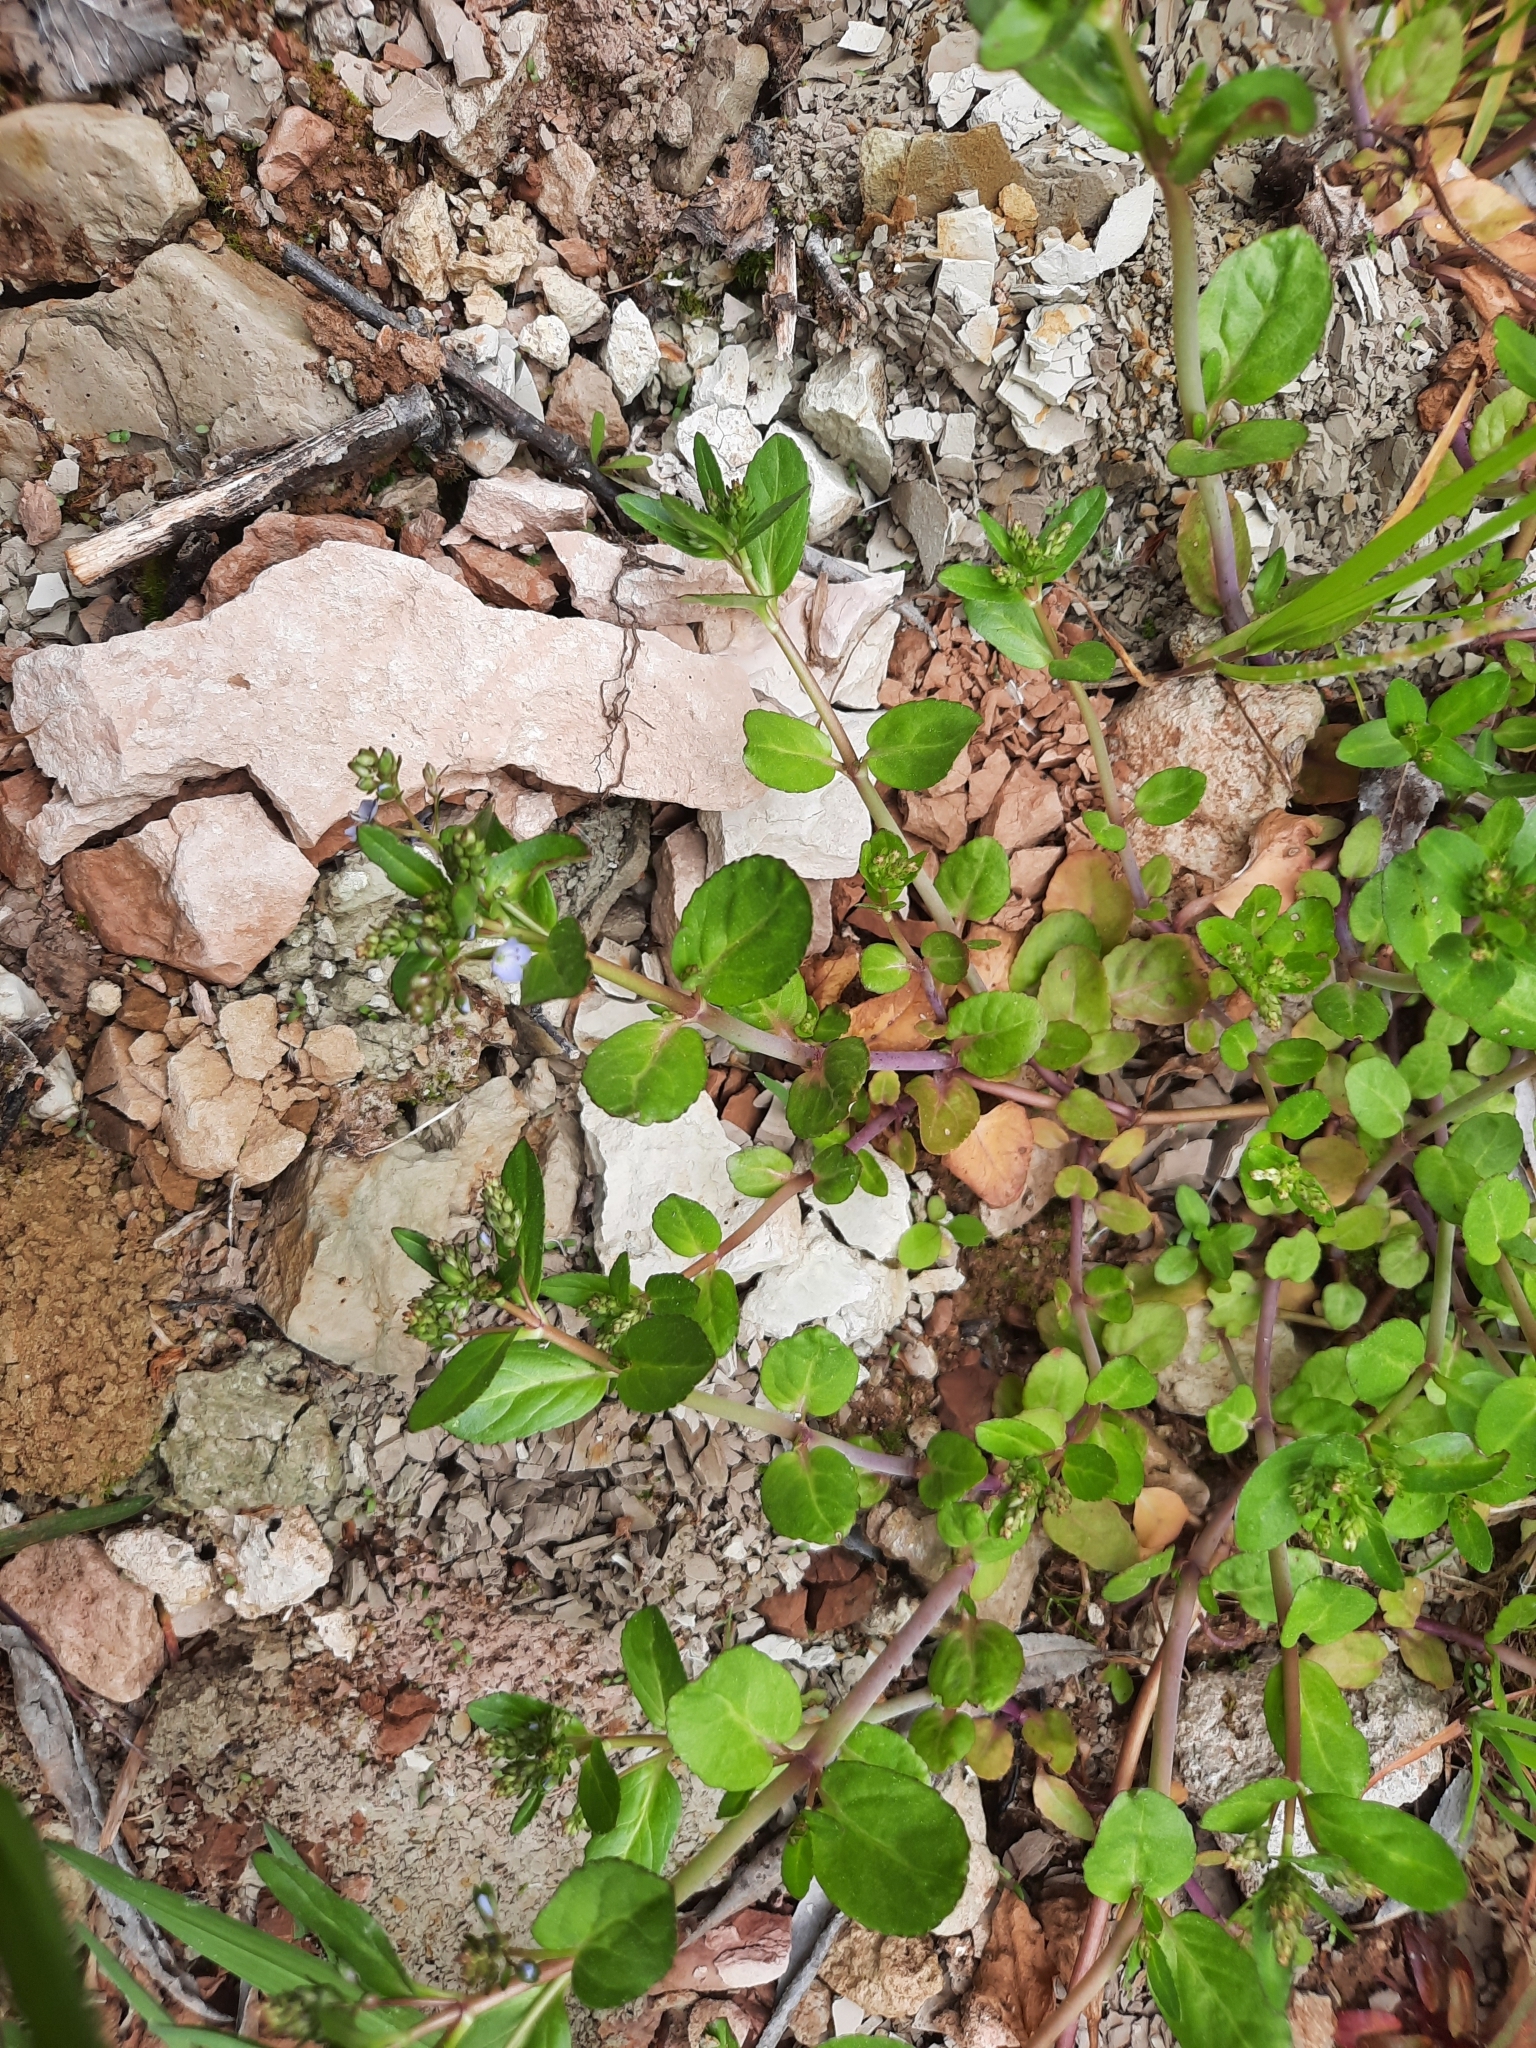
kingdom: Plantae
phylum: Tracheophyta
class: Magnoliopsida
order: Lamiales
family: Plantaginaceae
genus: Veronica
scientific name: Veronica beccabunga
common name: Brooklime
